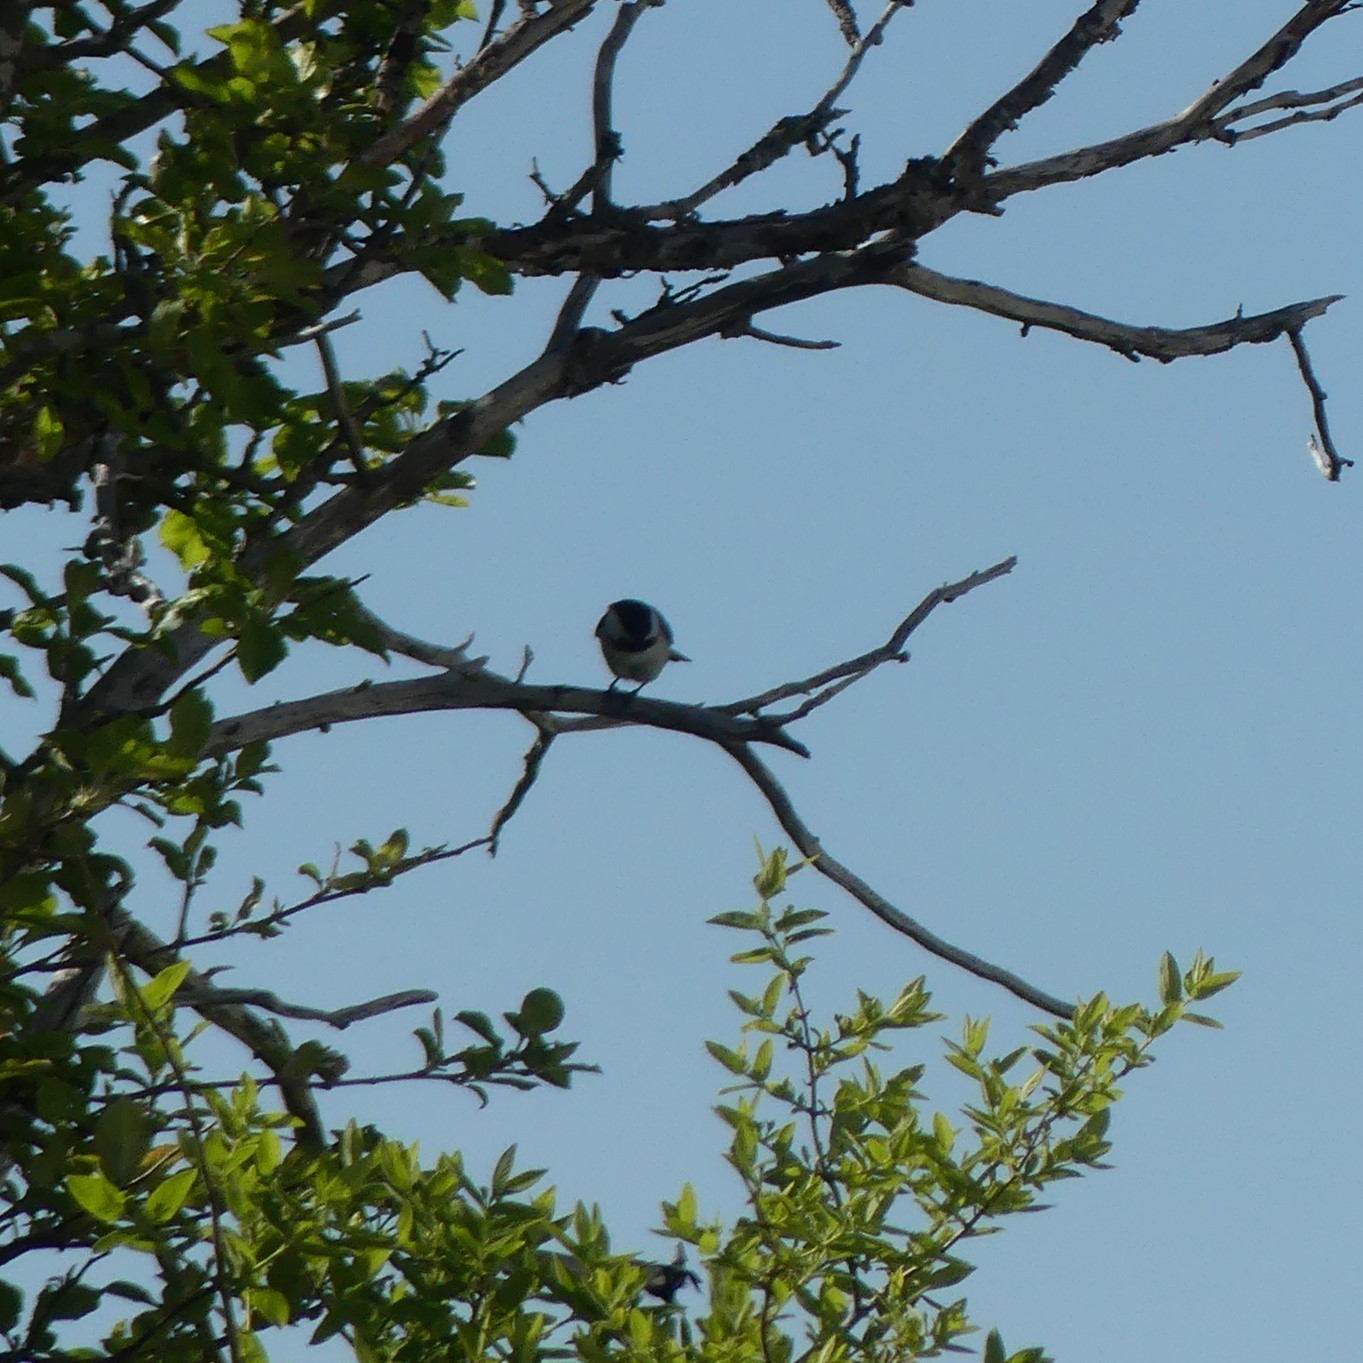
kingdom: Animalia
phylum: Chordata
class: Aves
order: Passeriformes
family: Paridae
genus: Poecile
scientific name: Poecile atricapillus
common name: Black-capped chickadee
